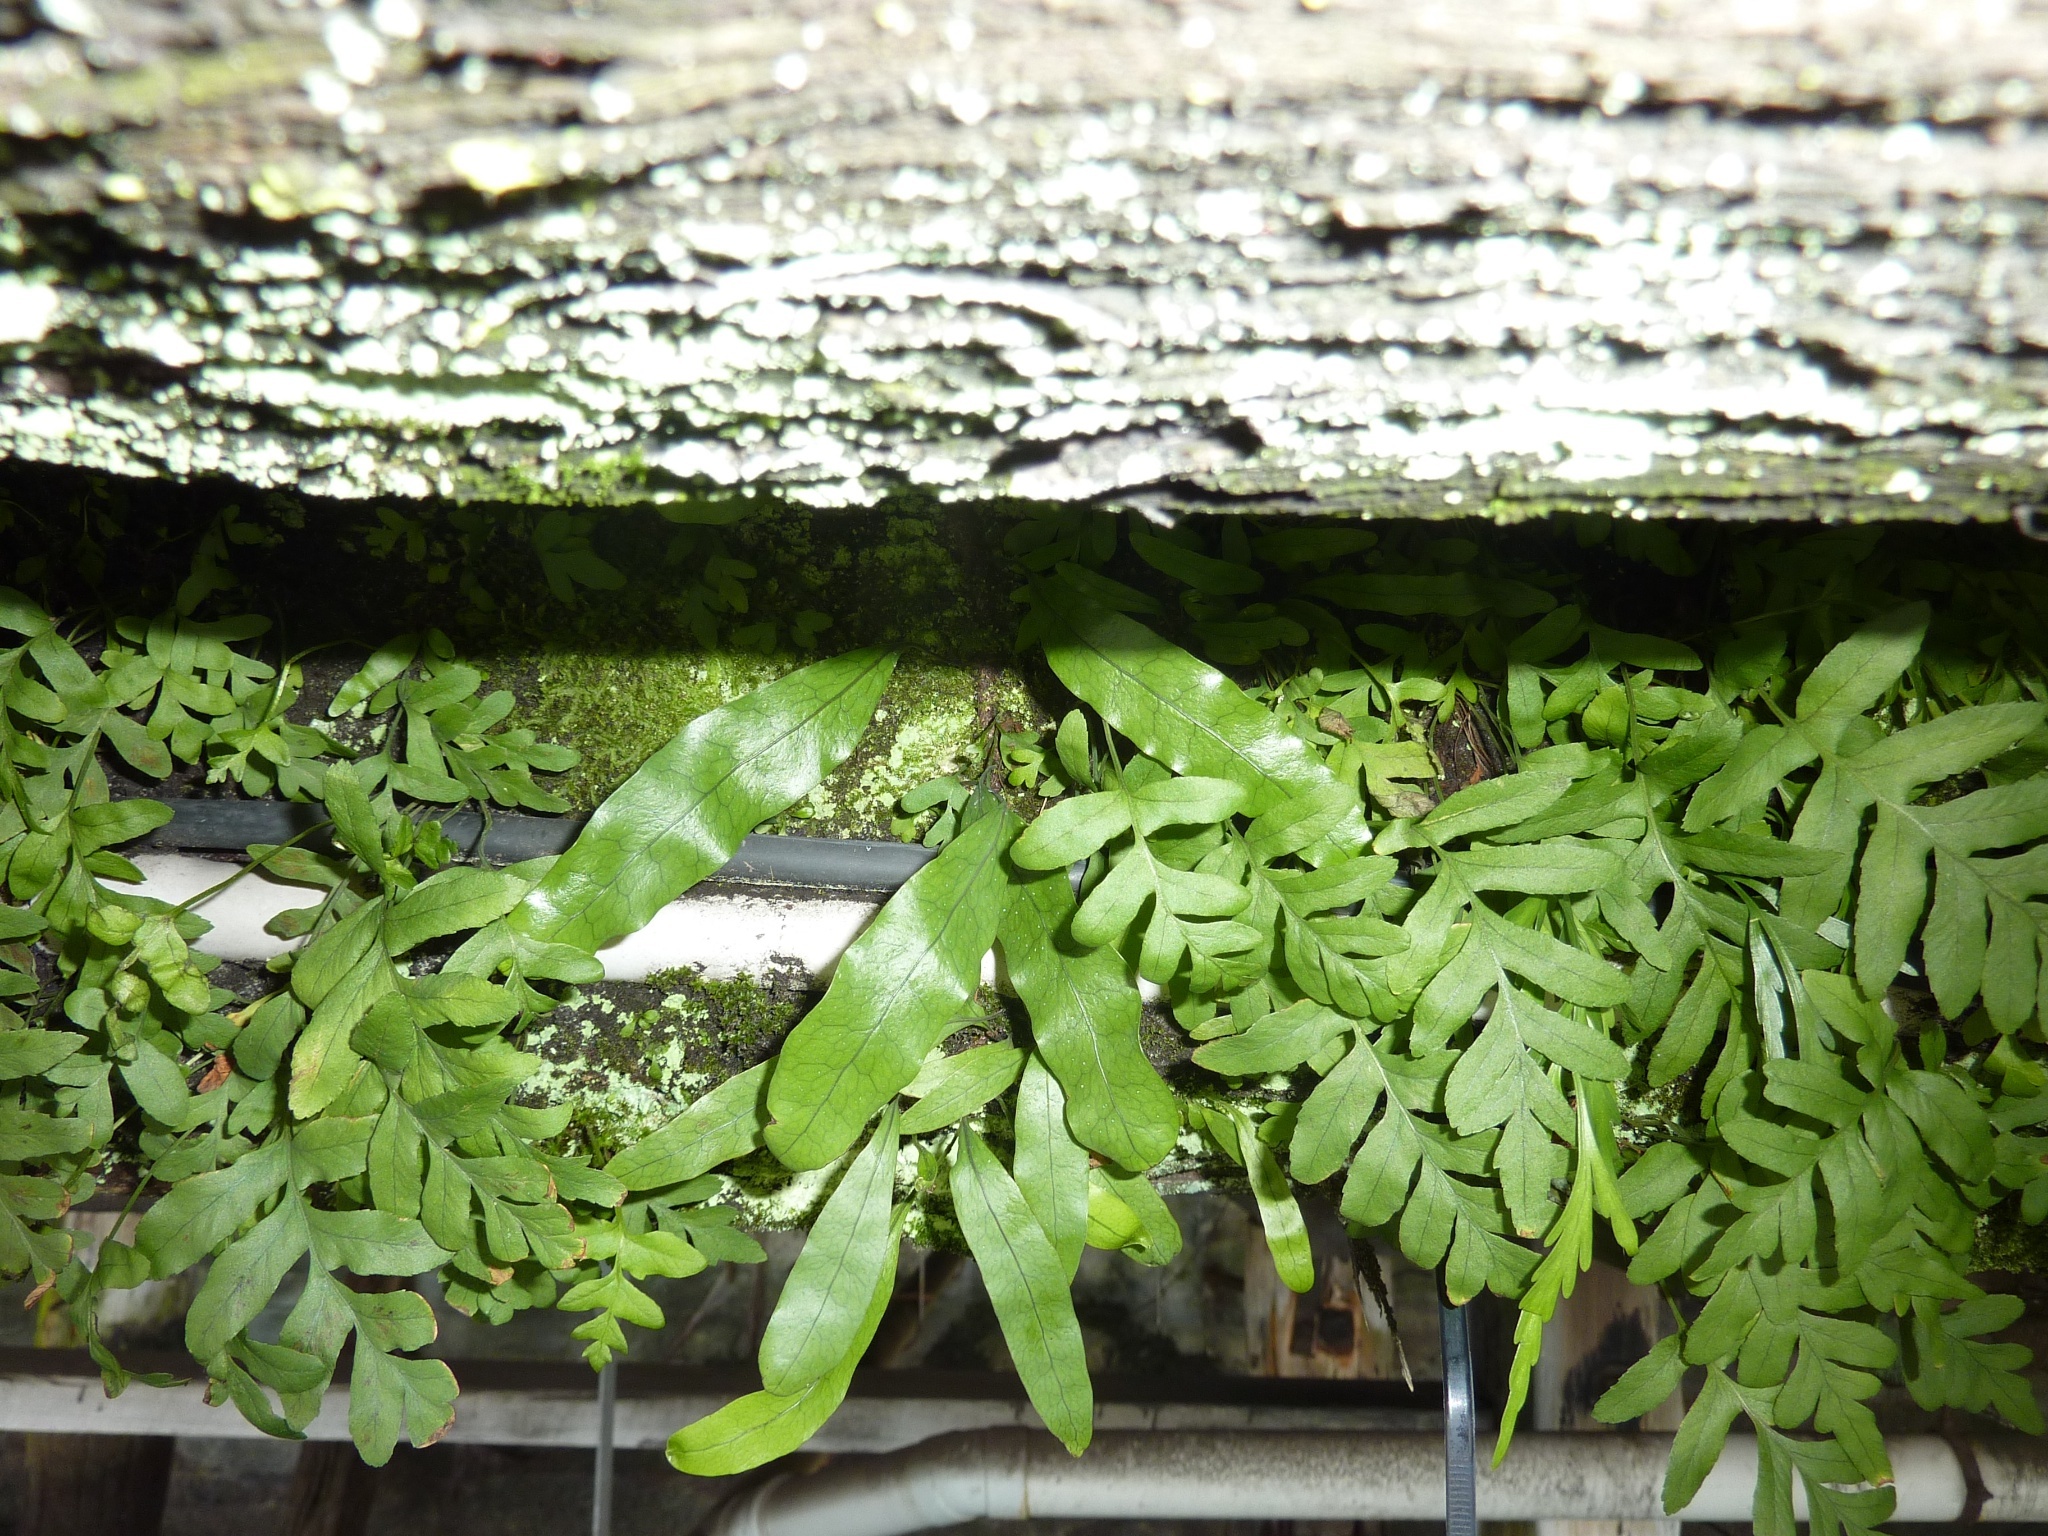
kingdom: Plantae
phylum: Tracheophyta
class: Polypodiopsida
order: Polypodiales
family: Polypodiaceae
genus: Lecanopteris
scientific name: Lecanopteris pustulata
